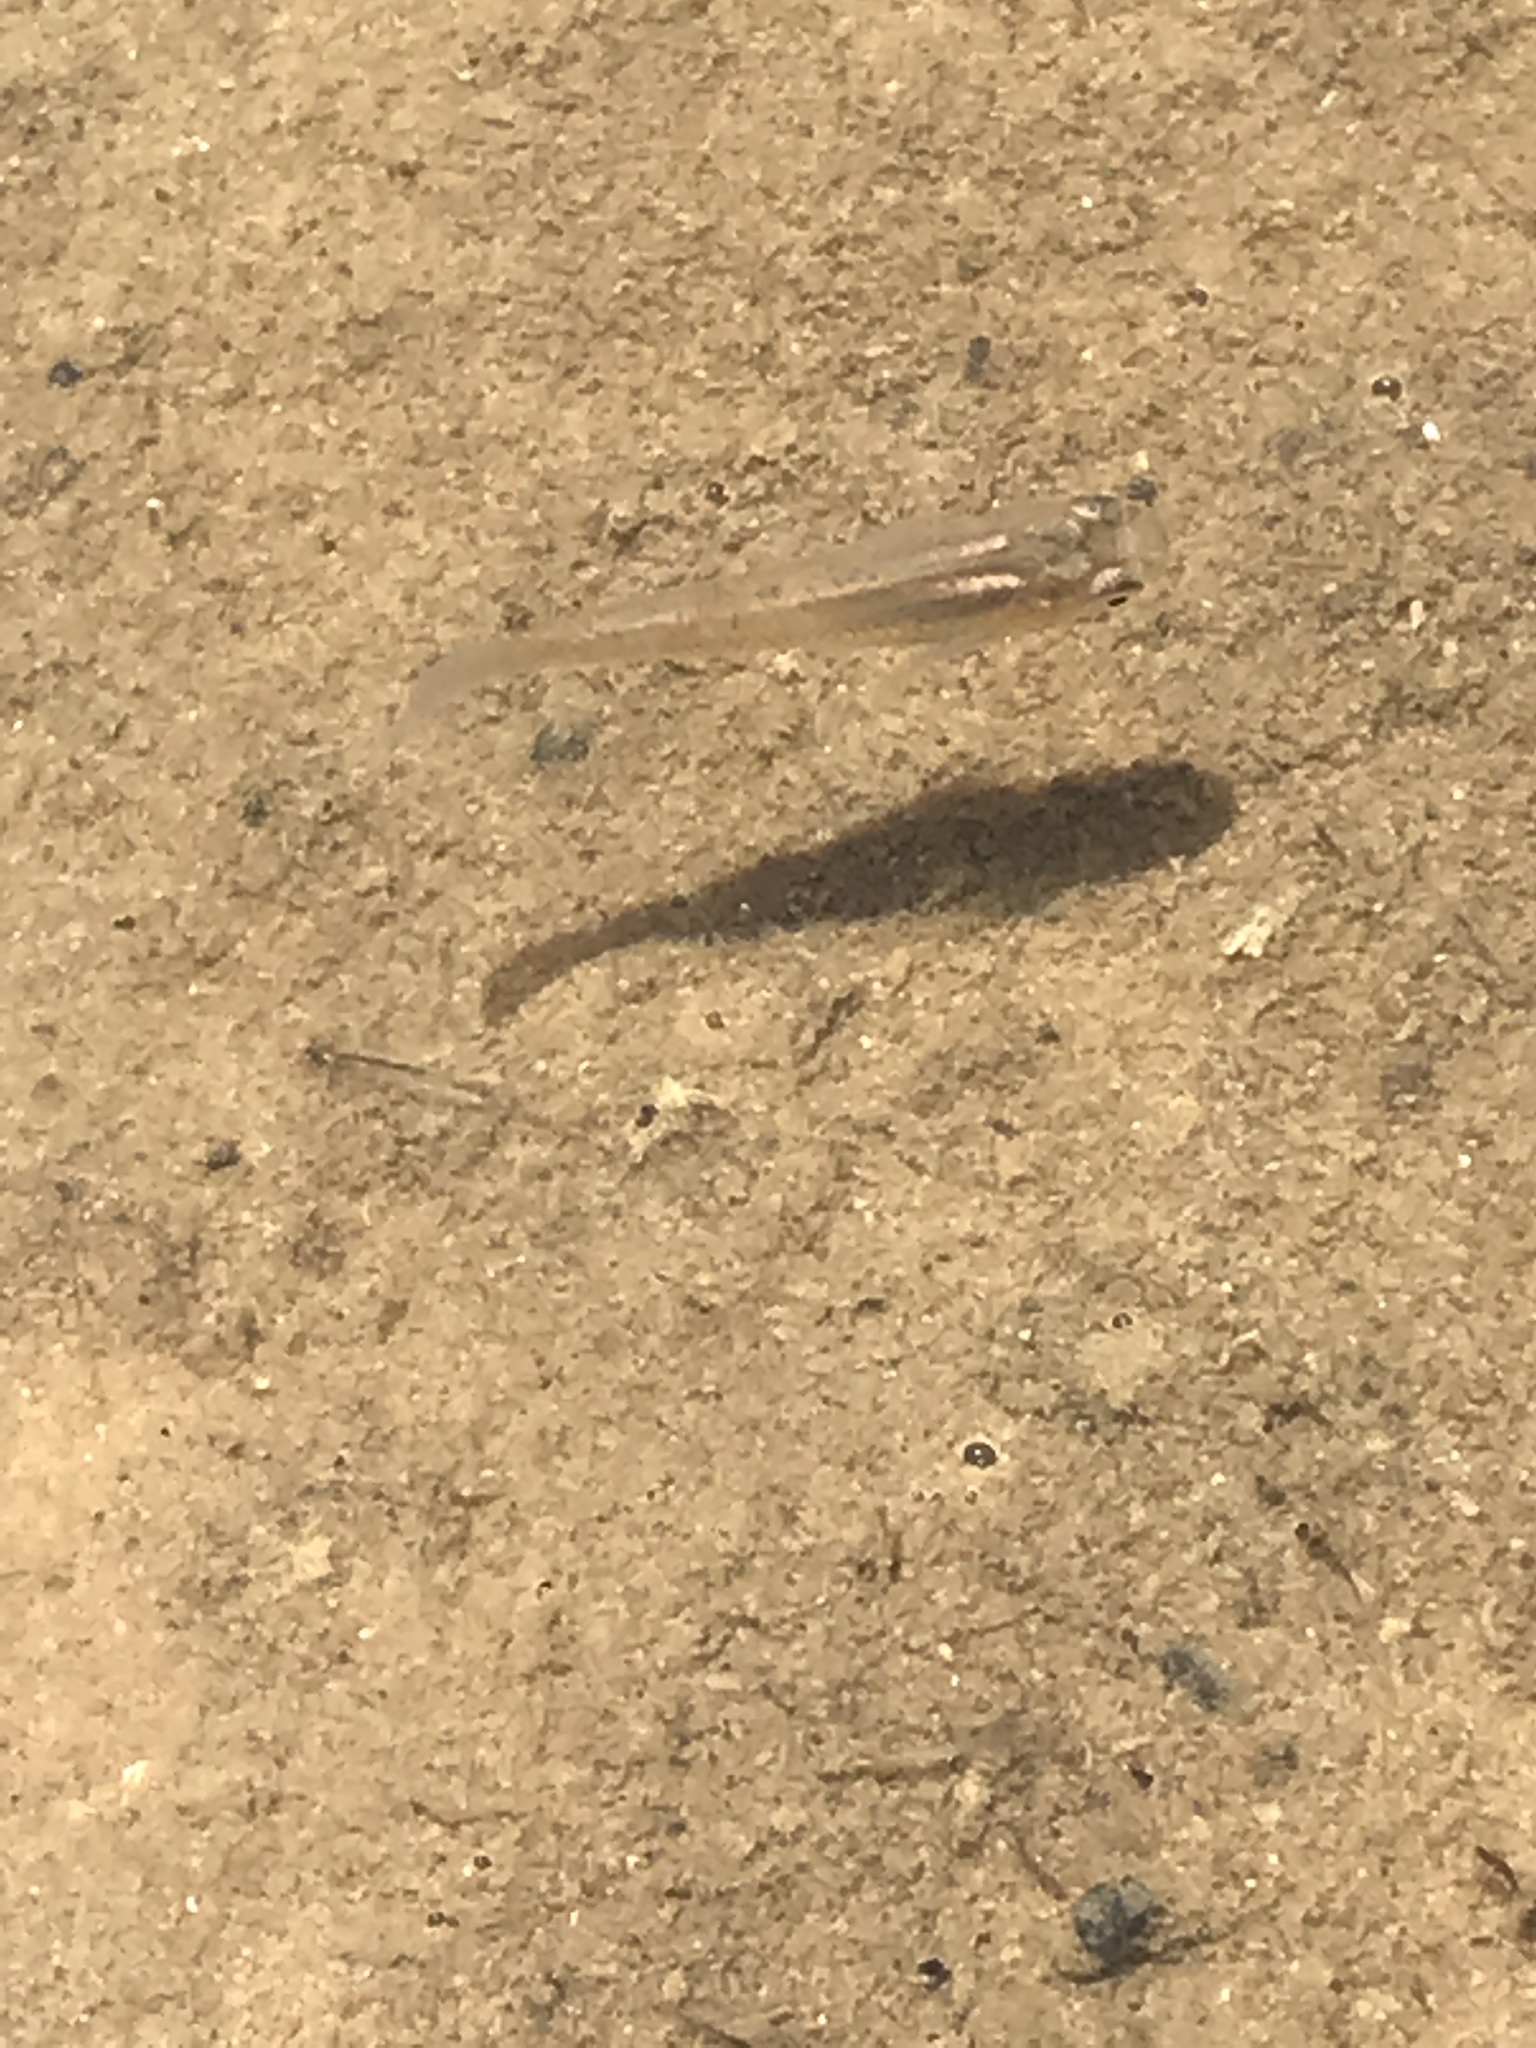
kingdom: Animalia
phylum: Chordata
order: Cyprinodontiformes
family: Poeciliidae
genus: Gambusia
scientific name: Gambusia affinis
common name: Mosquitofish
